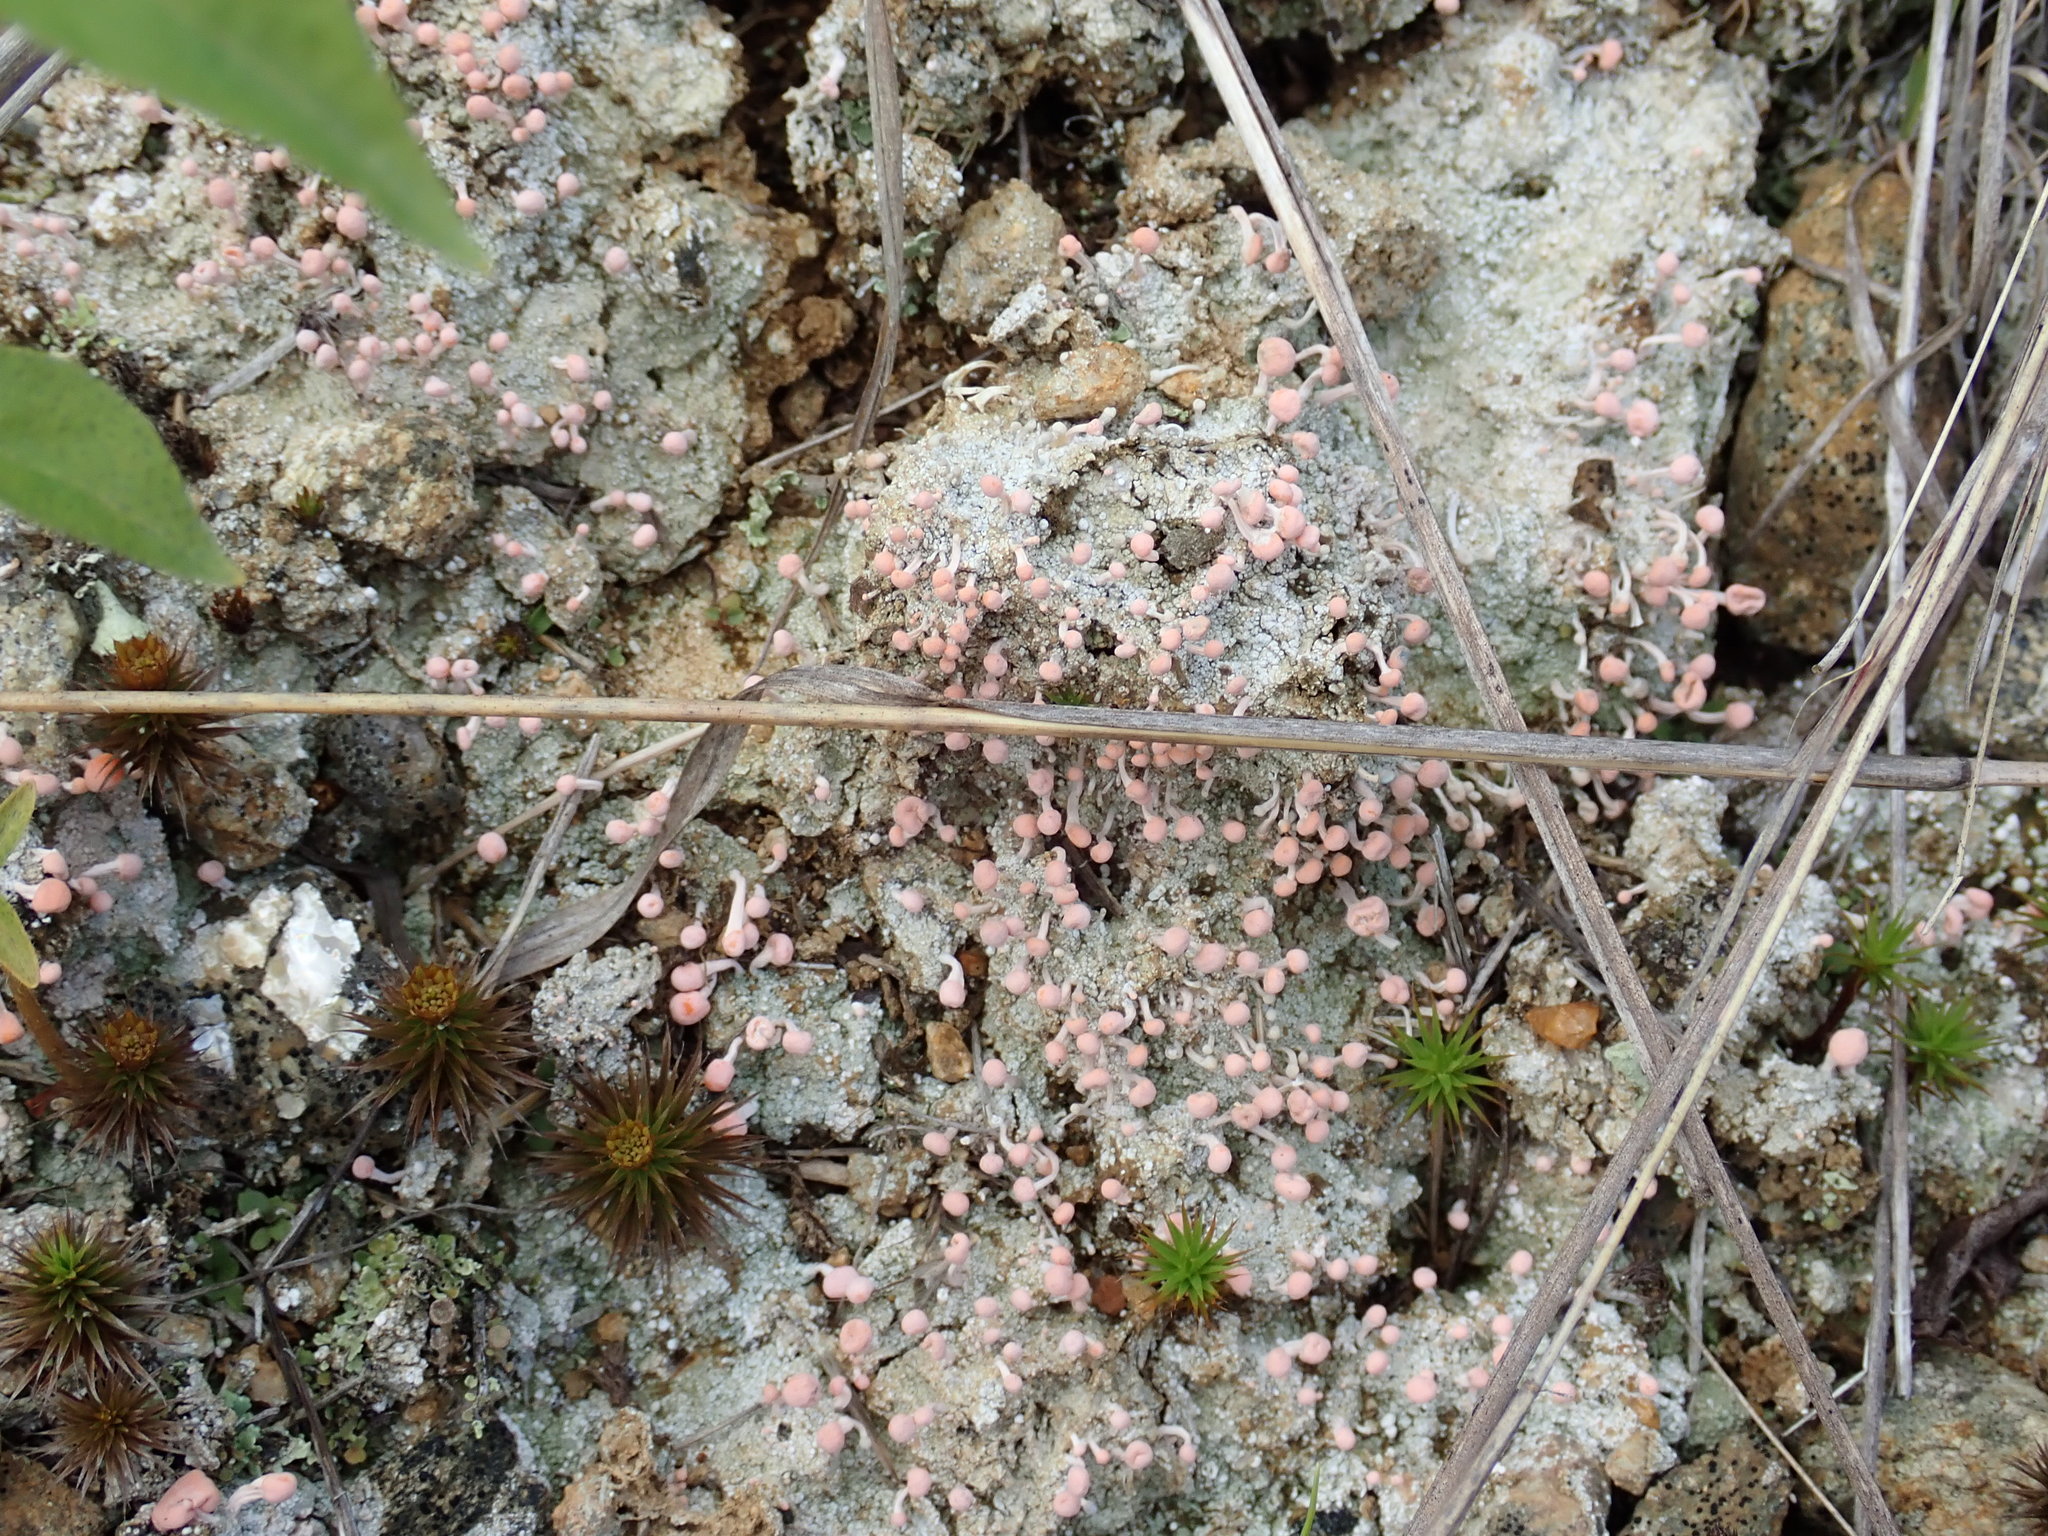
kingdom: Fungi
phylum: Ascomycota
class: Lecanoromycetes
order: Pertusariales
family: Icmadophilaceae
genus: Dibaeis
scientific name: Dibaeis baeomyces
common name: Pink earth lichen
